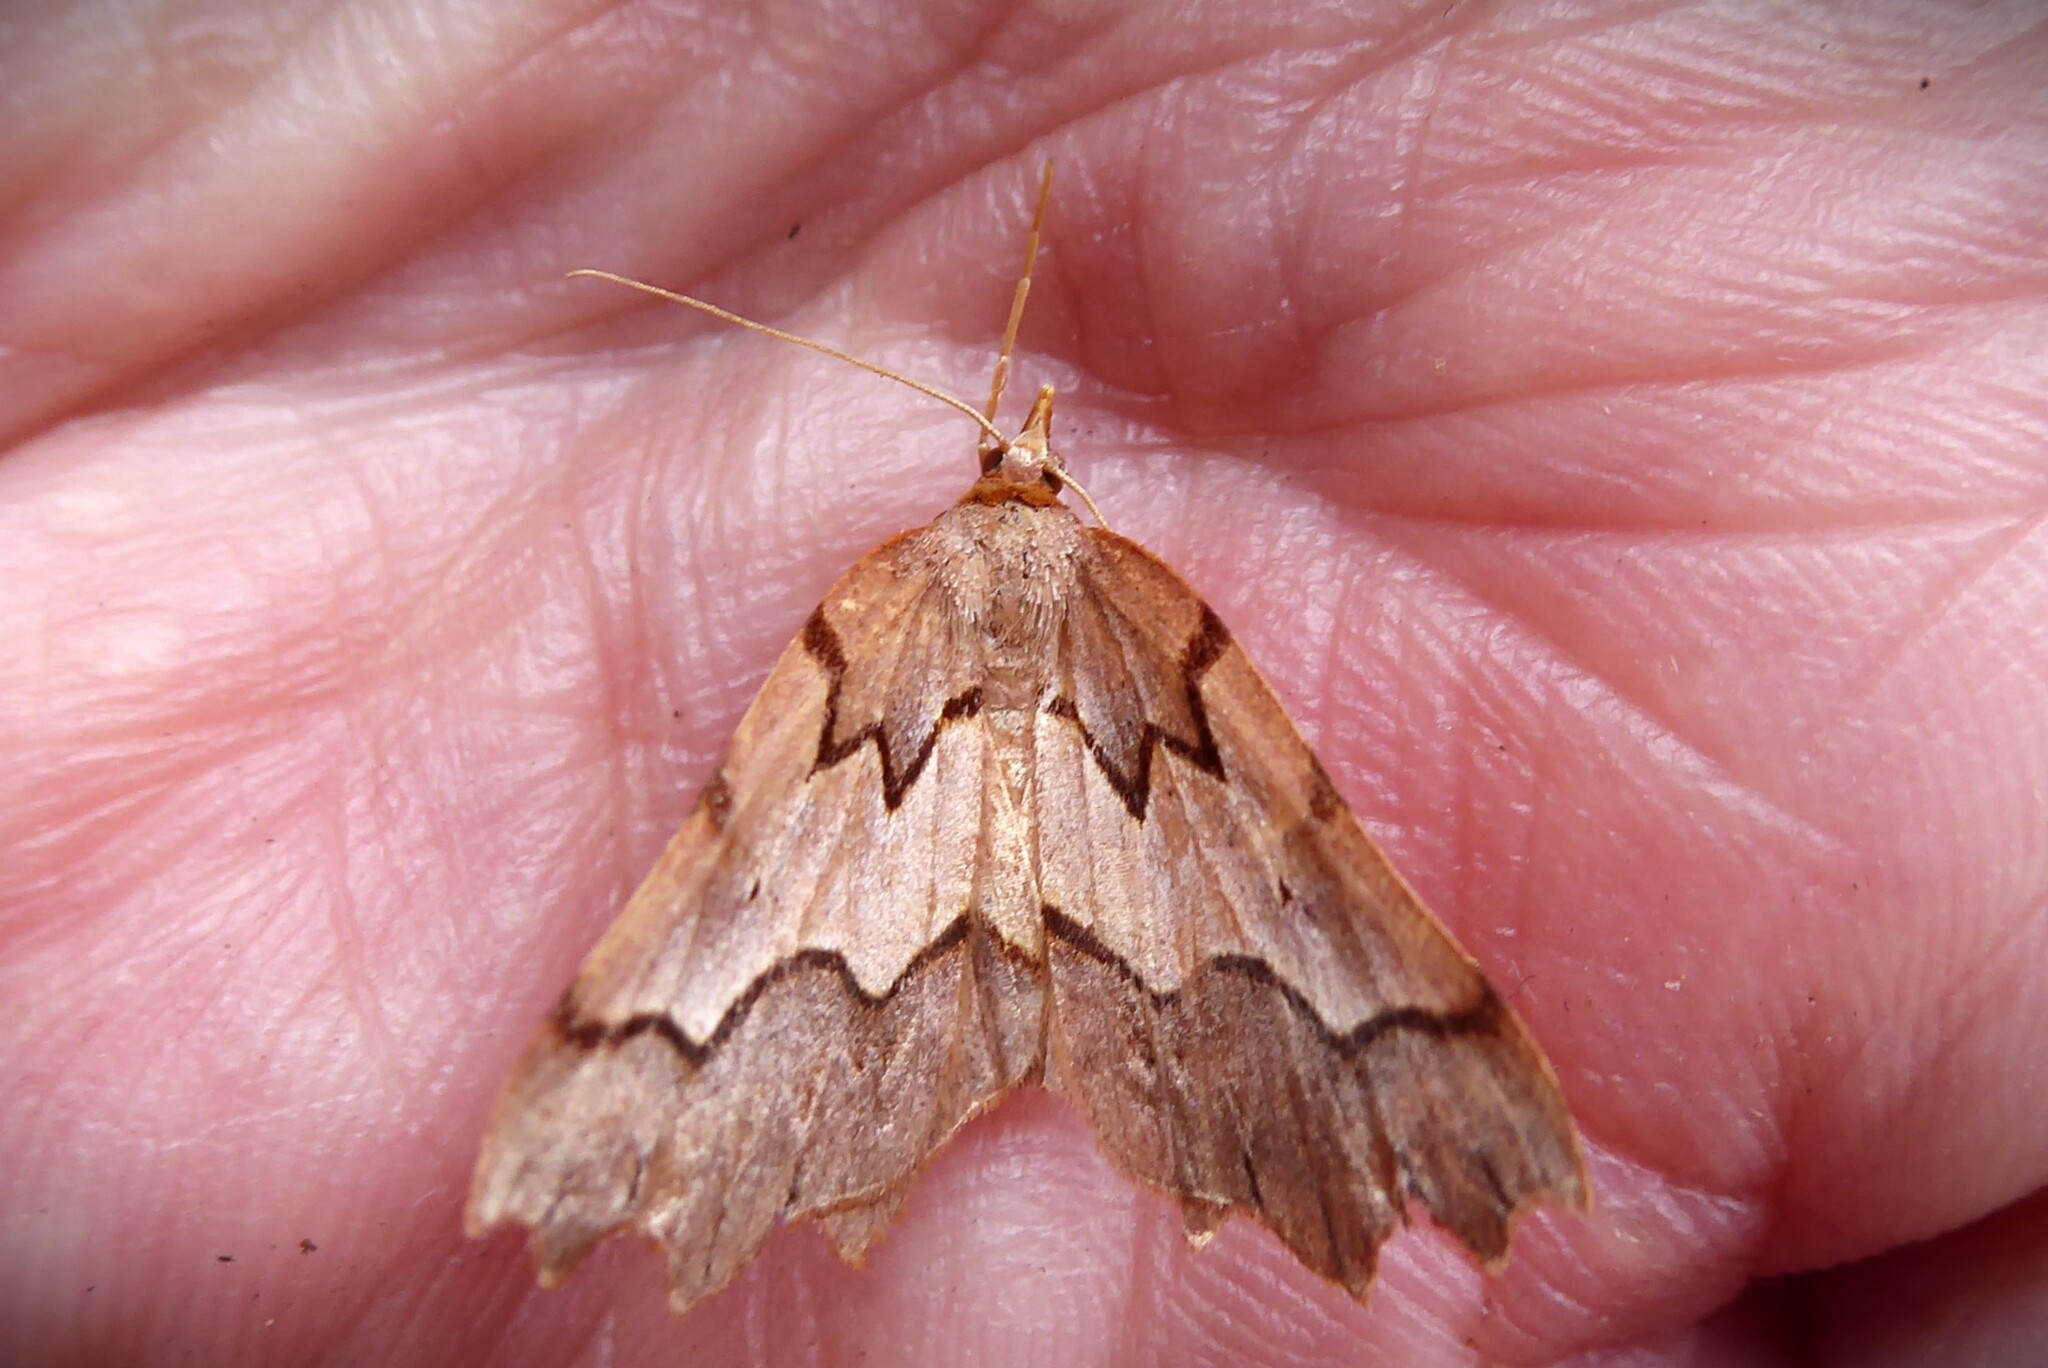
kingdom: Animalia
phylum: Arthropoda
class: Insecta
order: Lepidoptera
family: Geometridae
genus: Ischalis
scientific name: Ischalis fortinata
